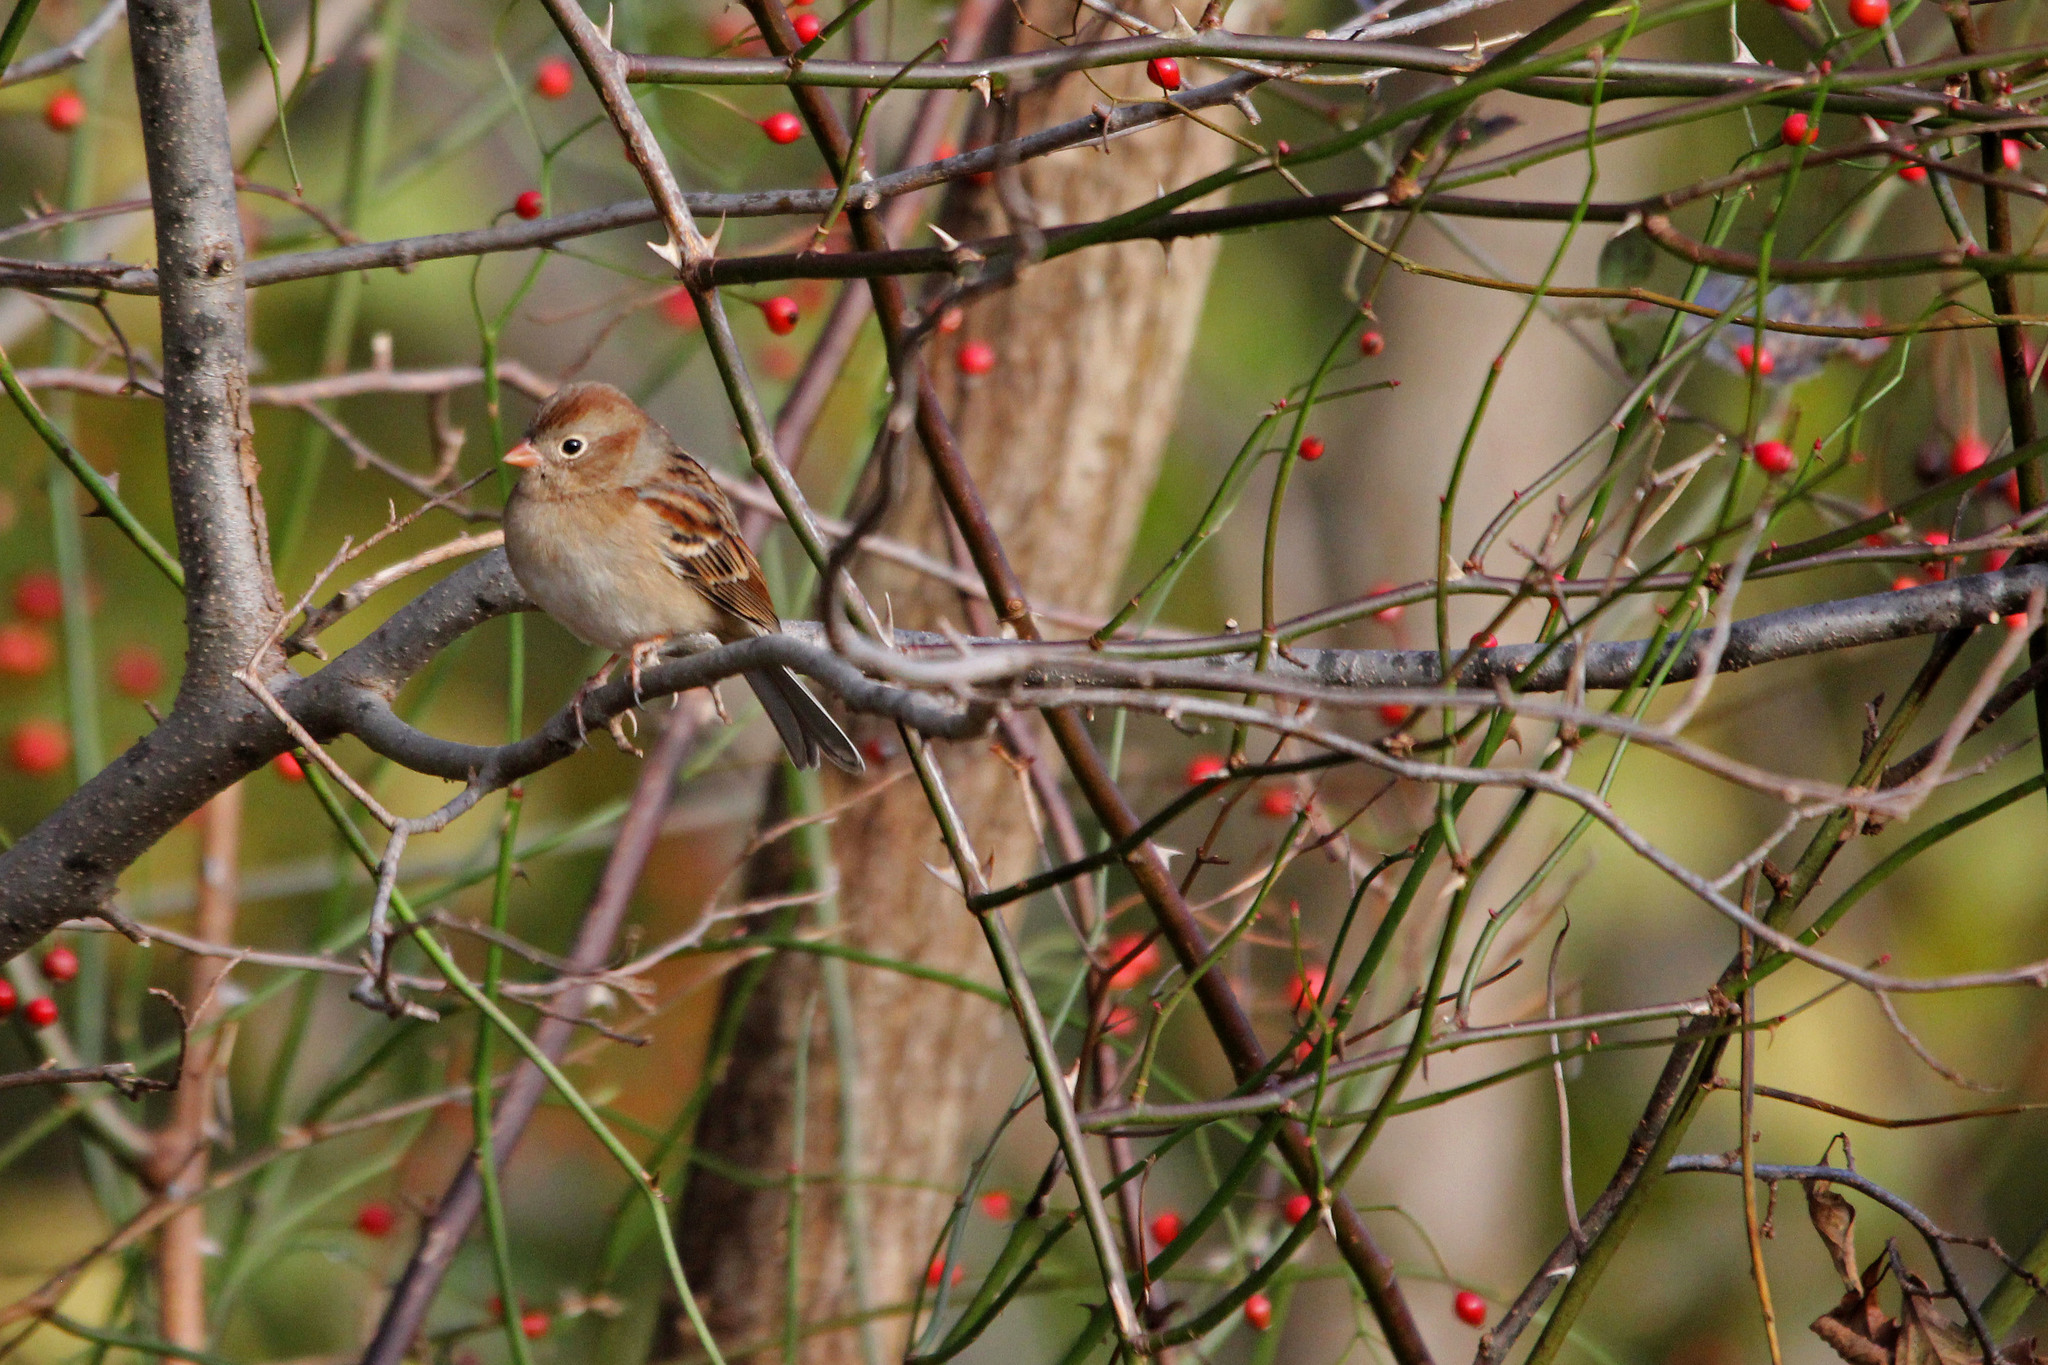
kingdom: Animalia
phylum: Chordata
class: Aves
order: Passeriformes
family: Passerellidae
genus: Spizella
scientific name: Spizella pusilla
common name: Field sparrow
